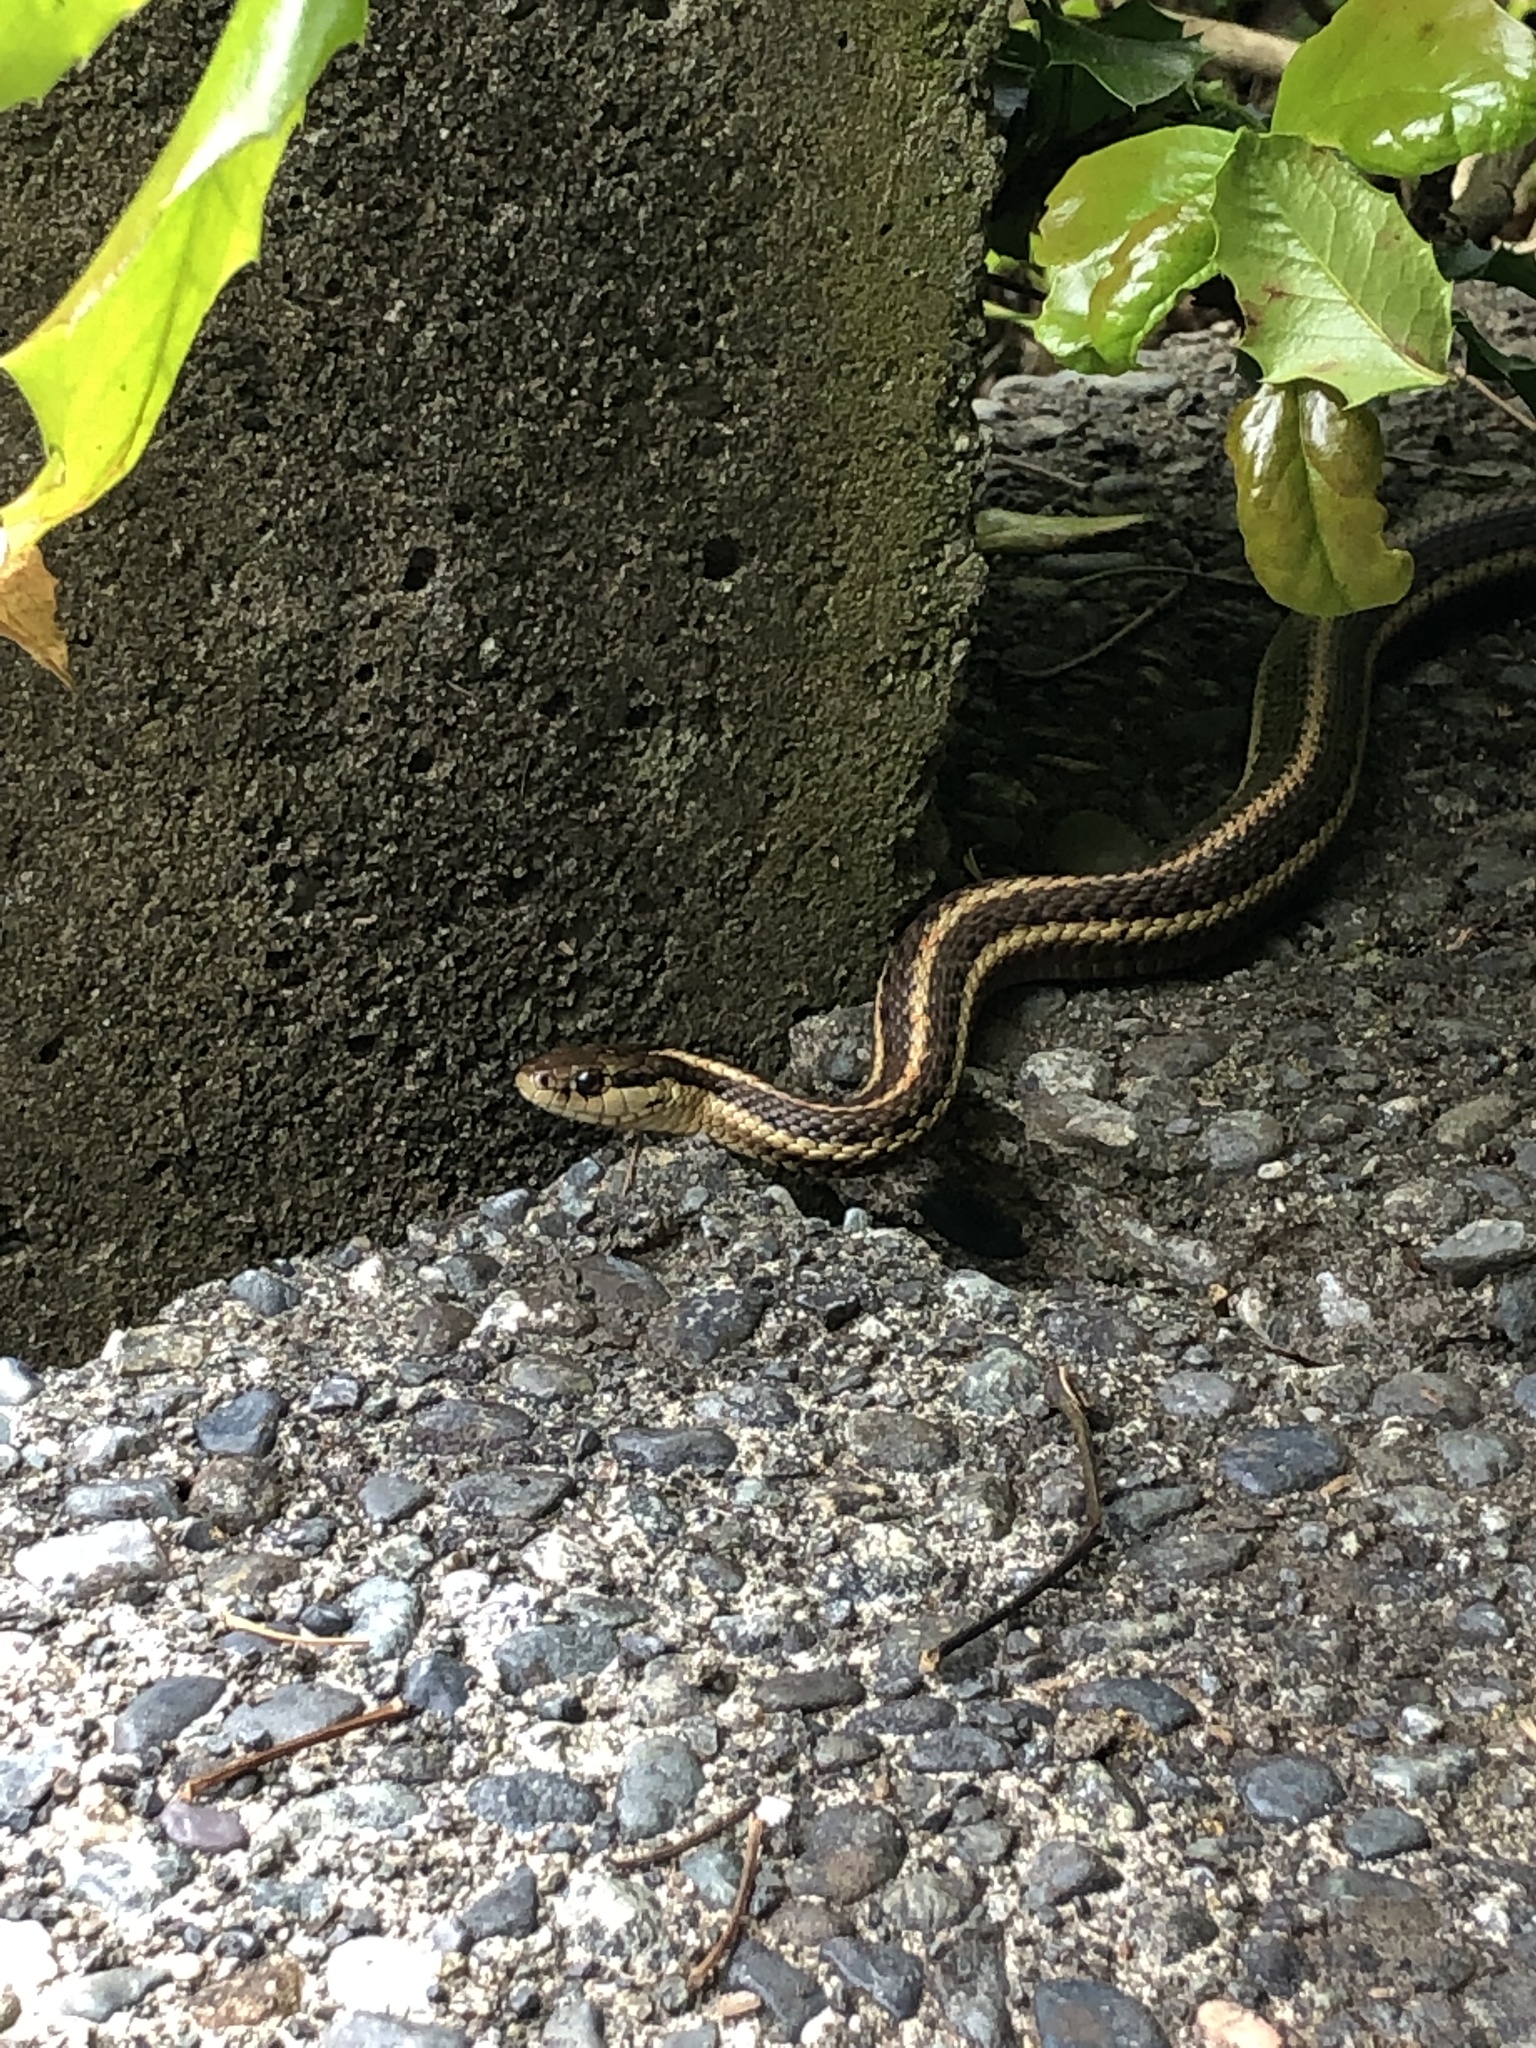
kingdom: Animalia
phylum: Chordata
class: Squamata
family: Colubridae
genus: Thamnophis
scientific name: Thamnophis ordinoides
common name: Northwestern garter snake
